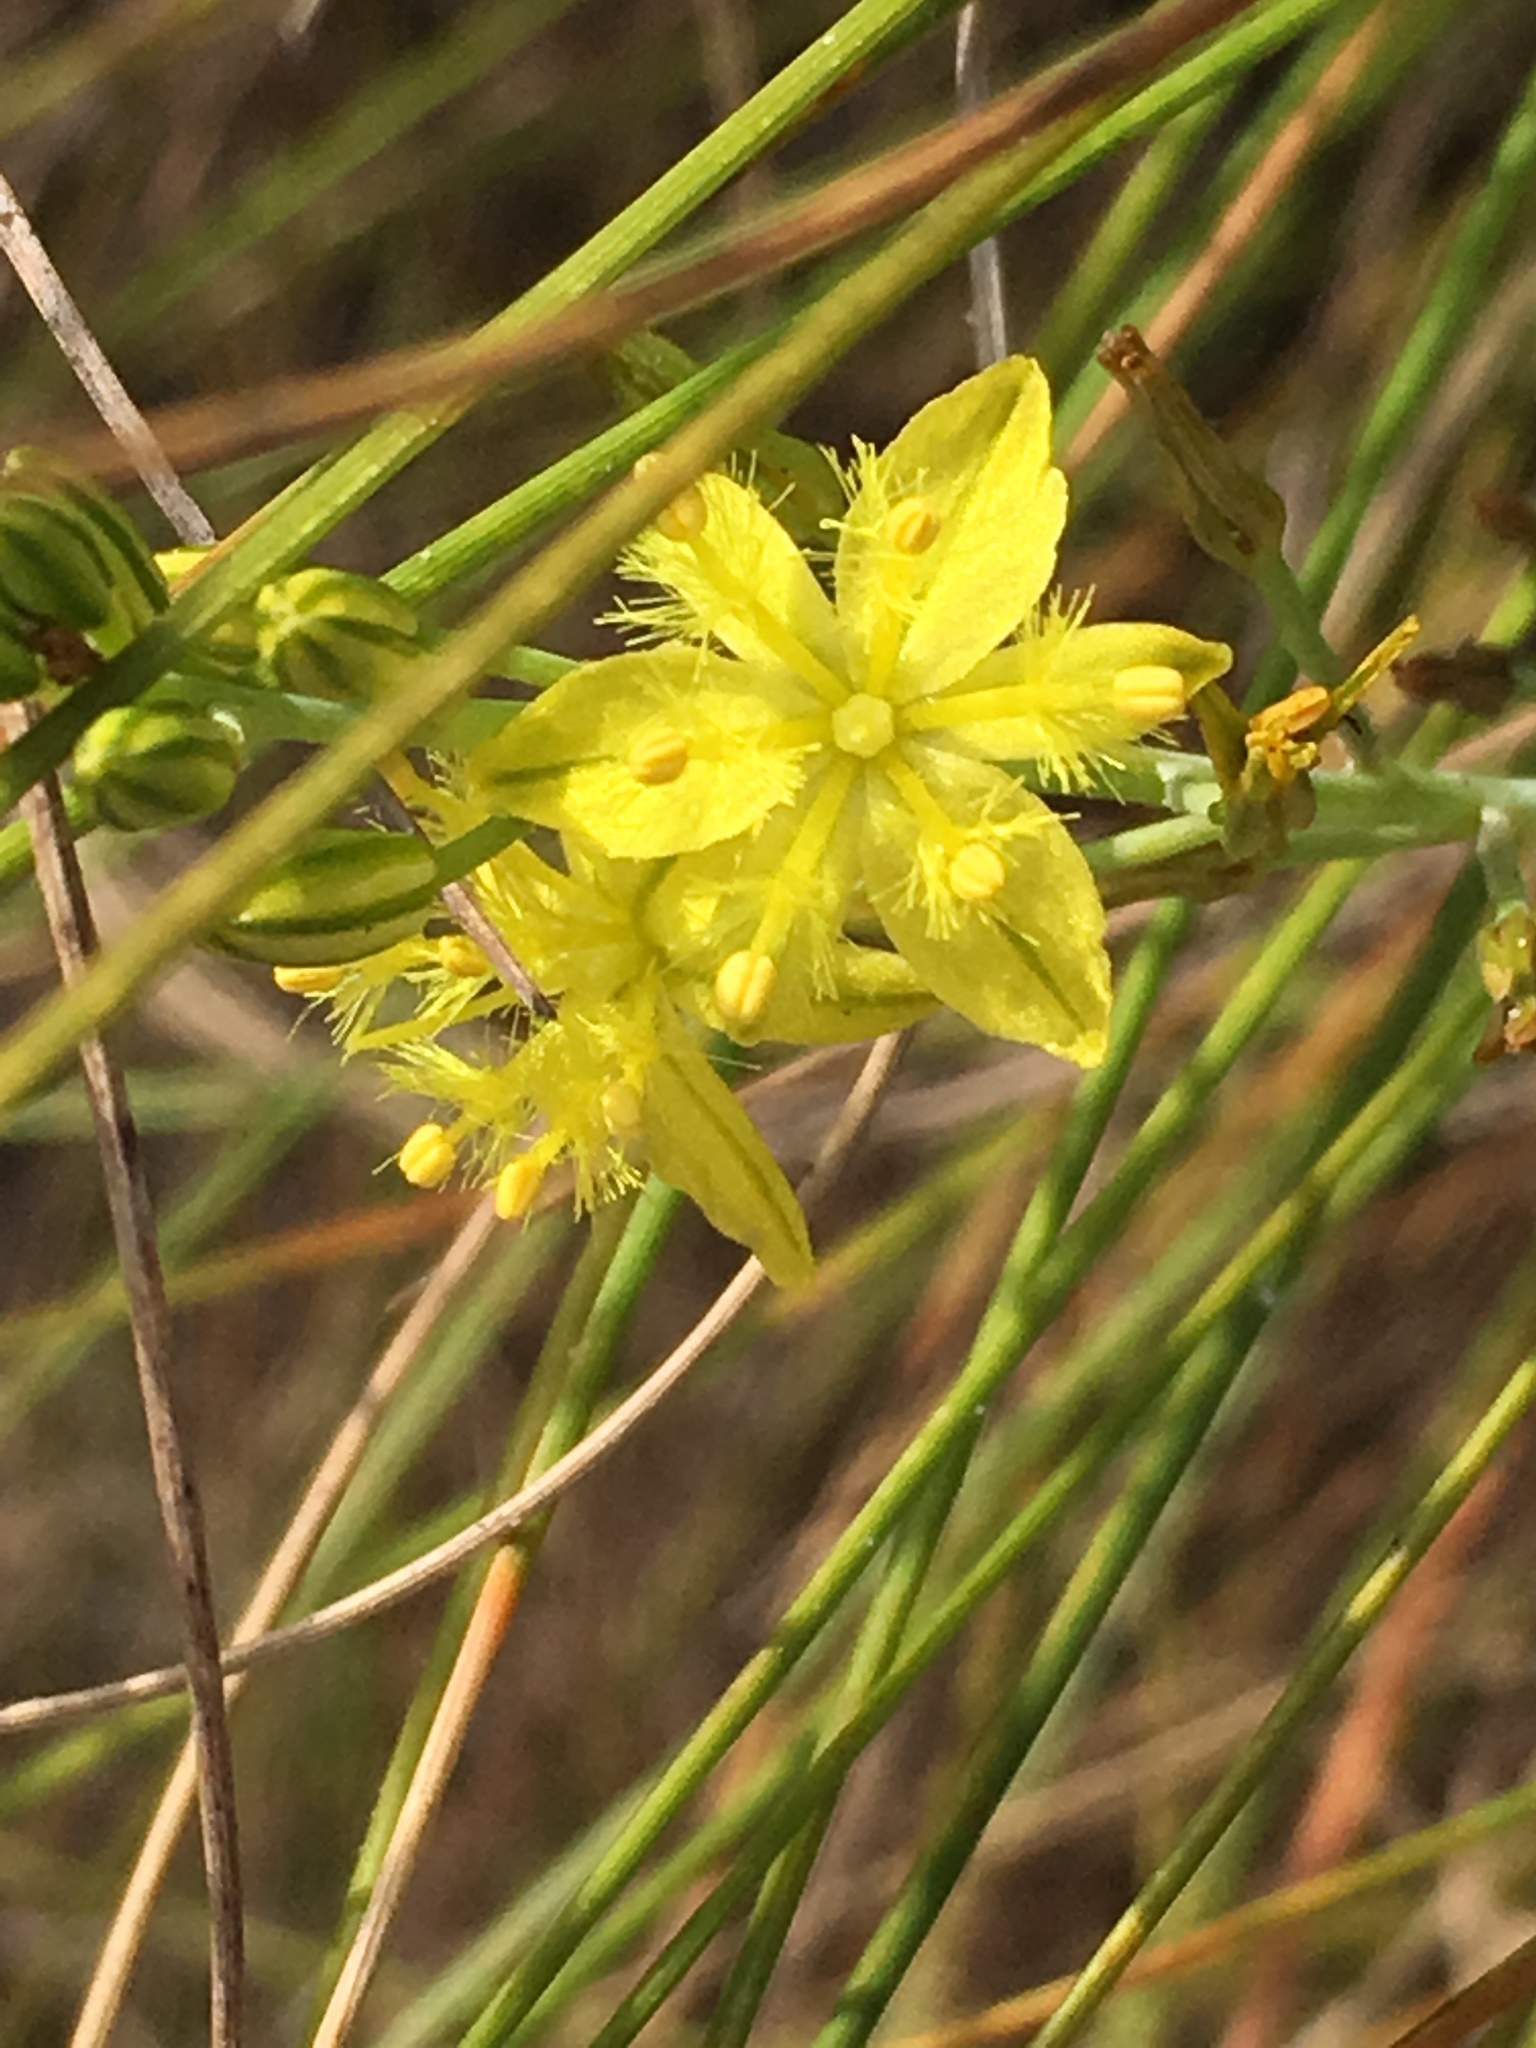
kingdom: Plantae
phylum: Tracheophyta
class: Liliopsida
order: Asparagales
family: Asphodelaceae
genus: Bulbine
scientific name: Bulbine favosa
